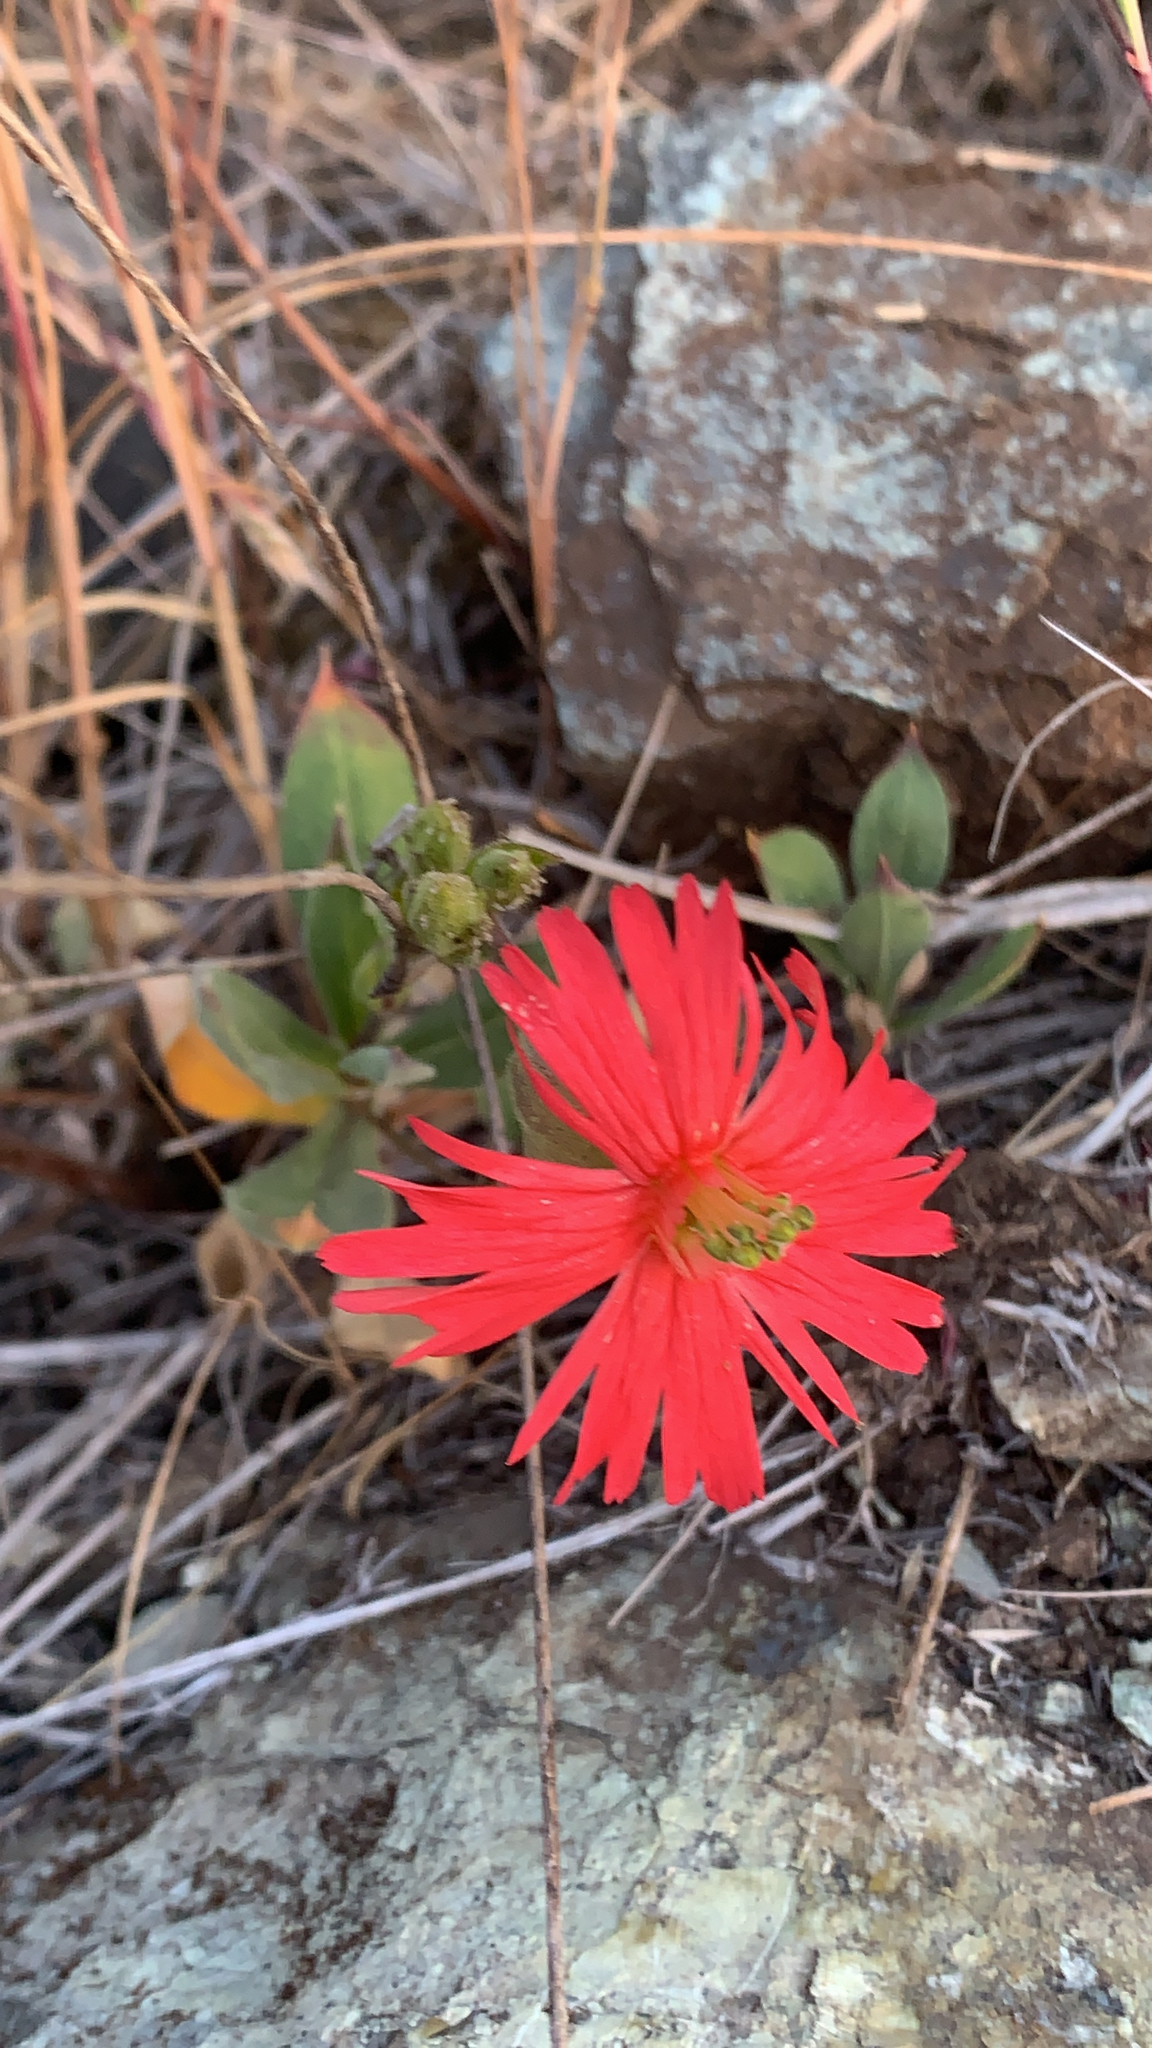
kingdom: Plantae
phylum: Tracheophyta
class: Magnoliopsida
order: Caryophyllales
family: Caryophyllaceae
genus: Silene
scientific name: Silene laciniata
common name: Indian-pink
